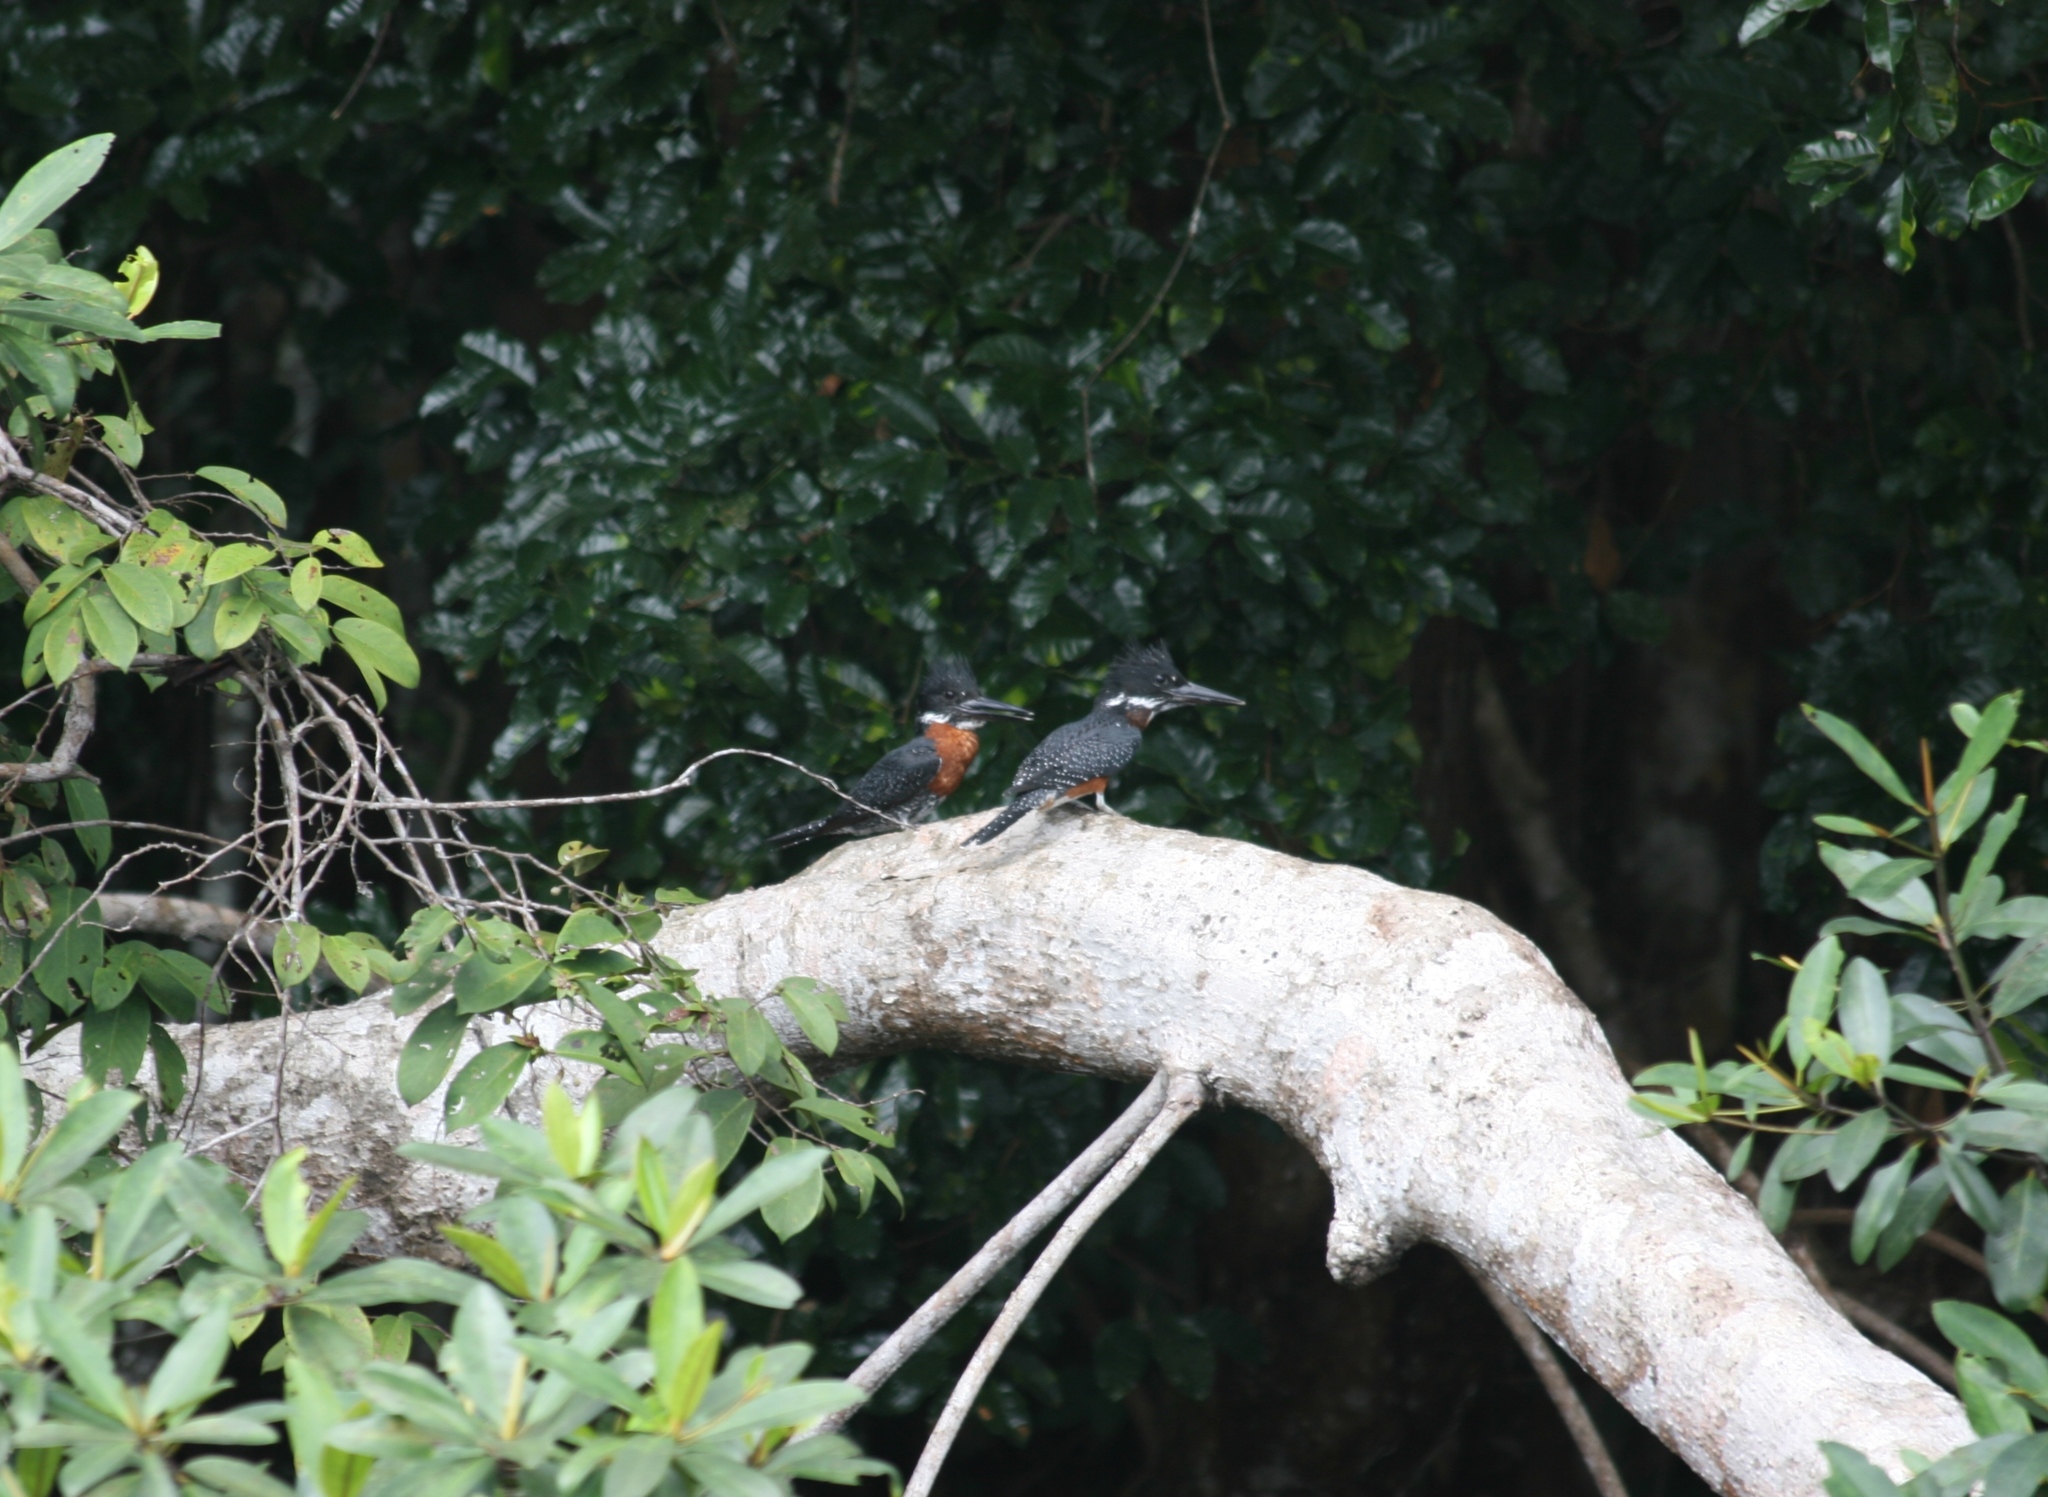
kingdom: Animalia
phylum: Chordata
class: Aves
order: Coraciiformes
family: Alcedinidae
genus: Megaceryle
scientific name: Megaceryle maxima
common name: Giant kingfisher
